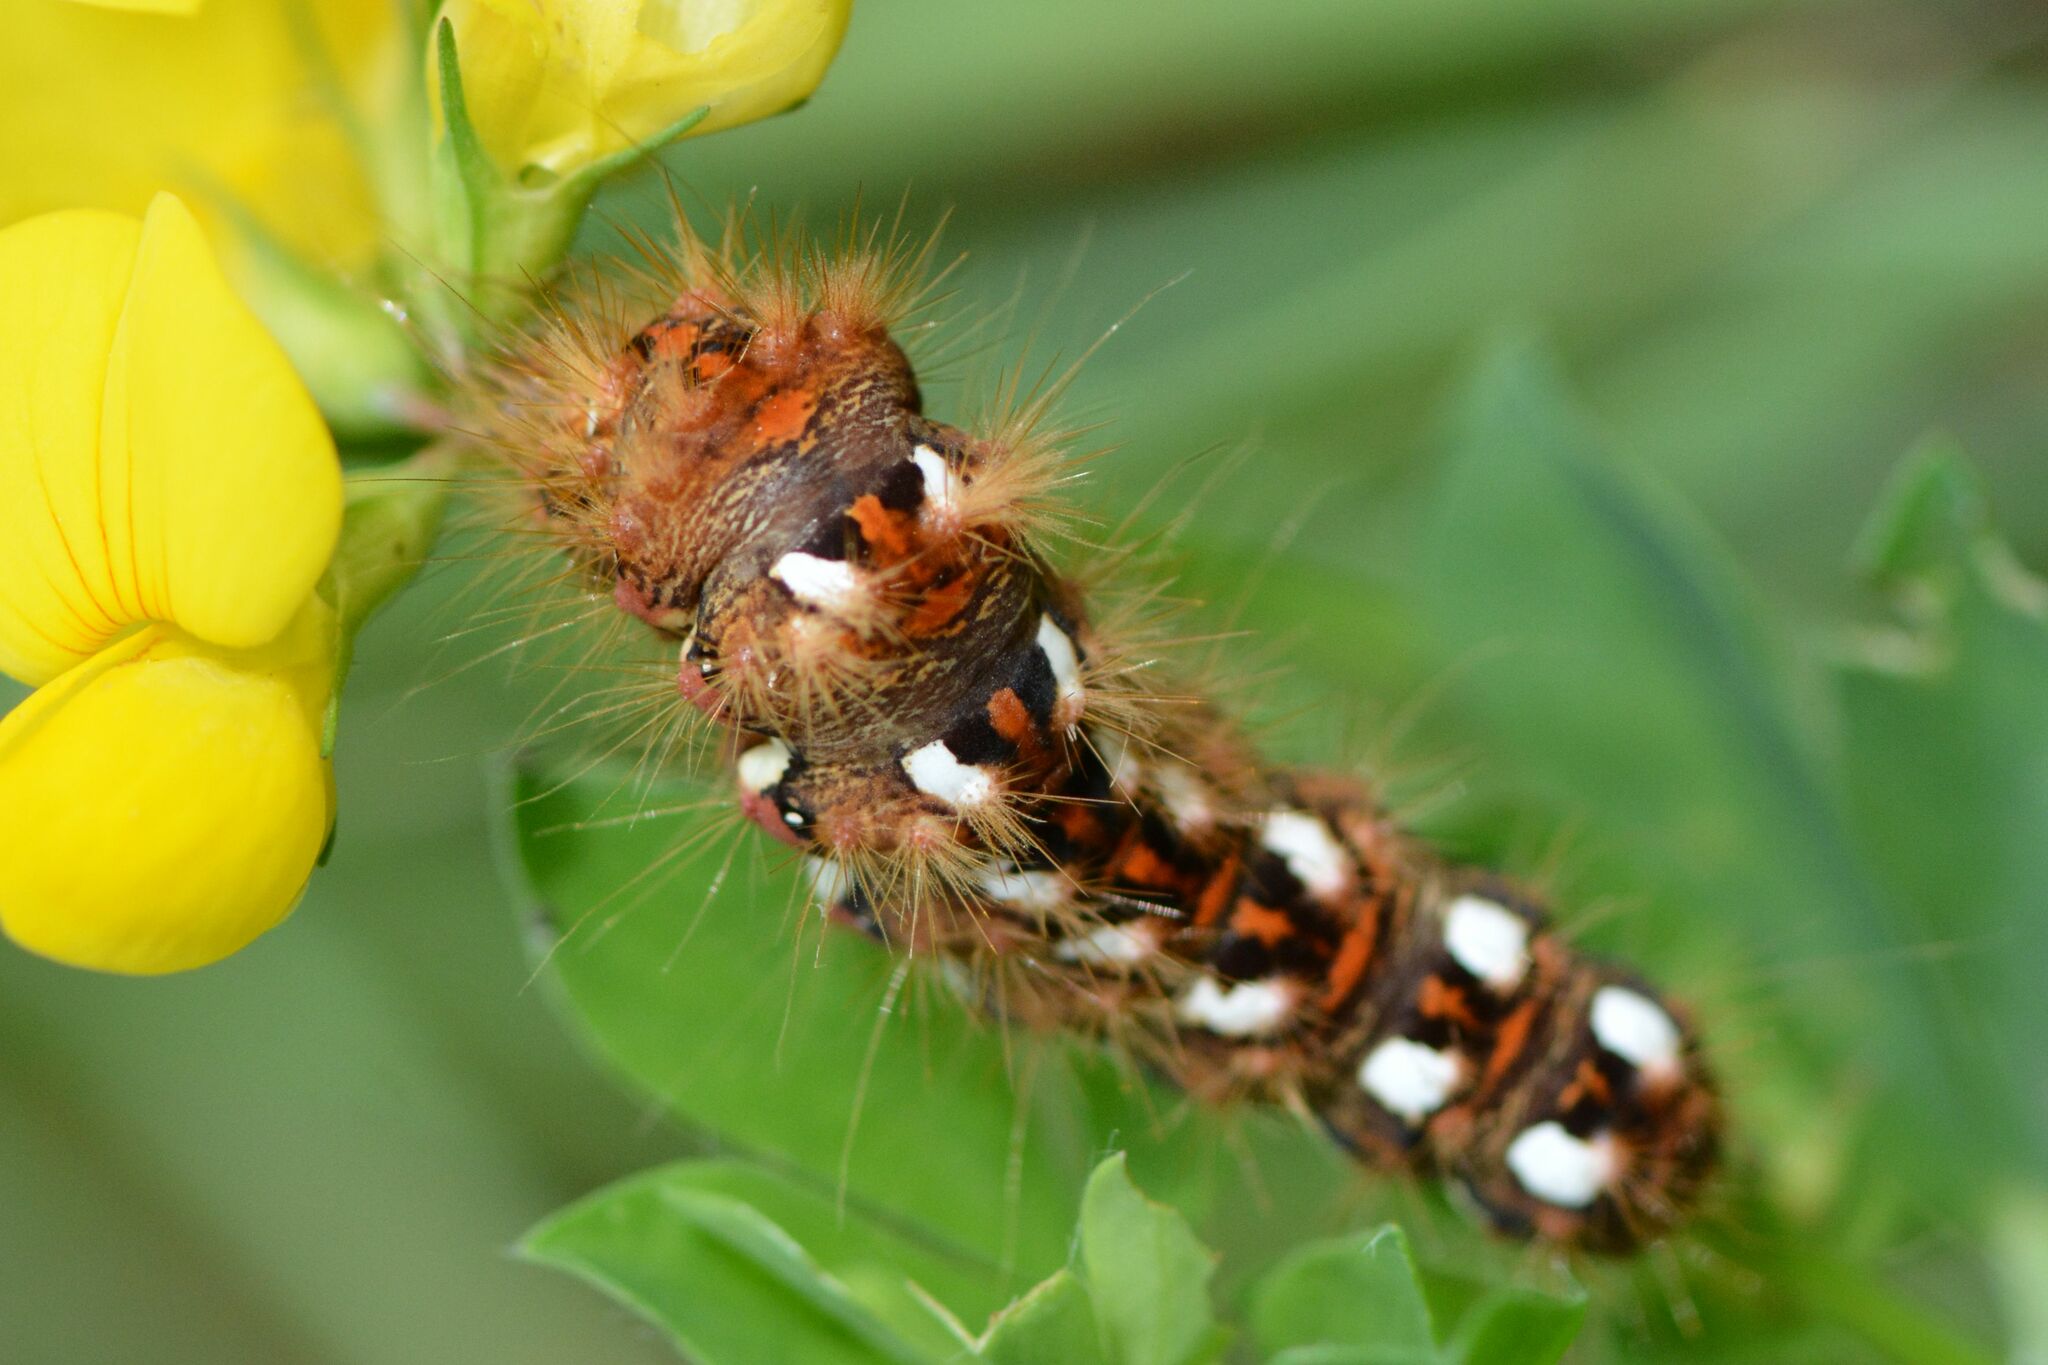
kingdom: Animalia
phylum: Arthropoda
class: Insecta
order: Lepidoptera
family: Noctuidae
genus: Acronicta
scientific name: Acronicta rumicis
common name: Knot grass
